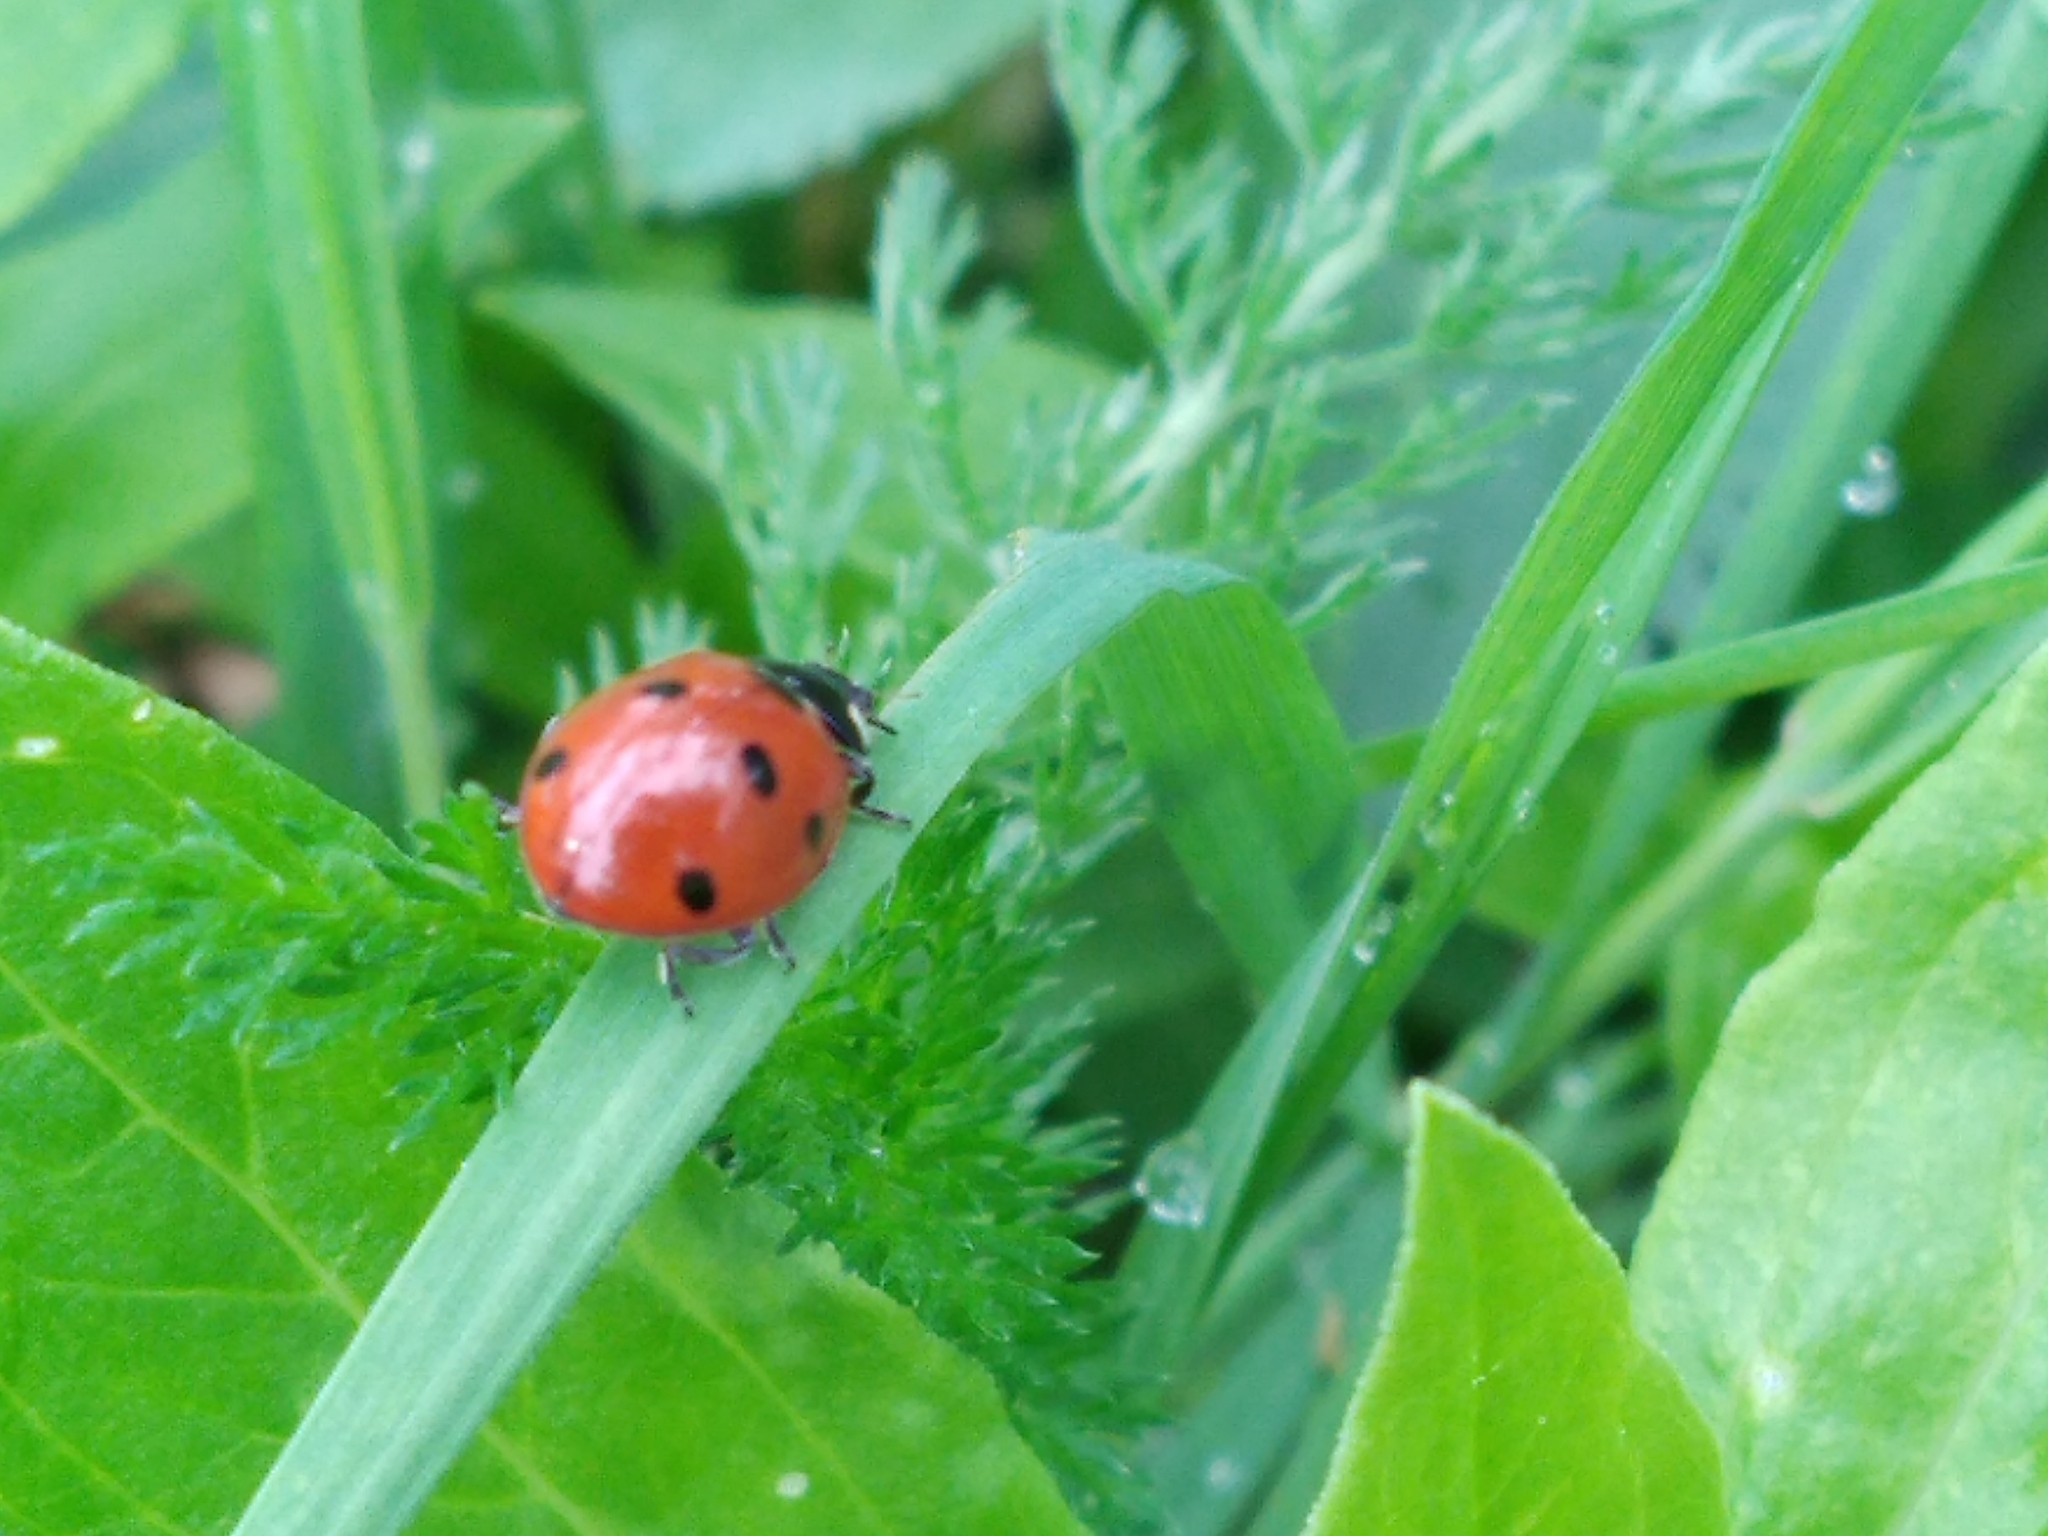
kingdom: Animalia
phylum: Arthropoda
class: Insecta
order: Coleoptera
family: Coccinellidae
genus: Coccinella
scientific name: Coccinella septempunctata
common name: Sevenspotted lady beetle
